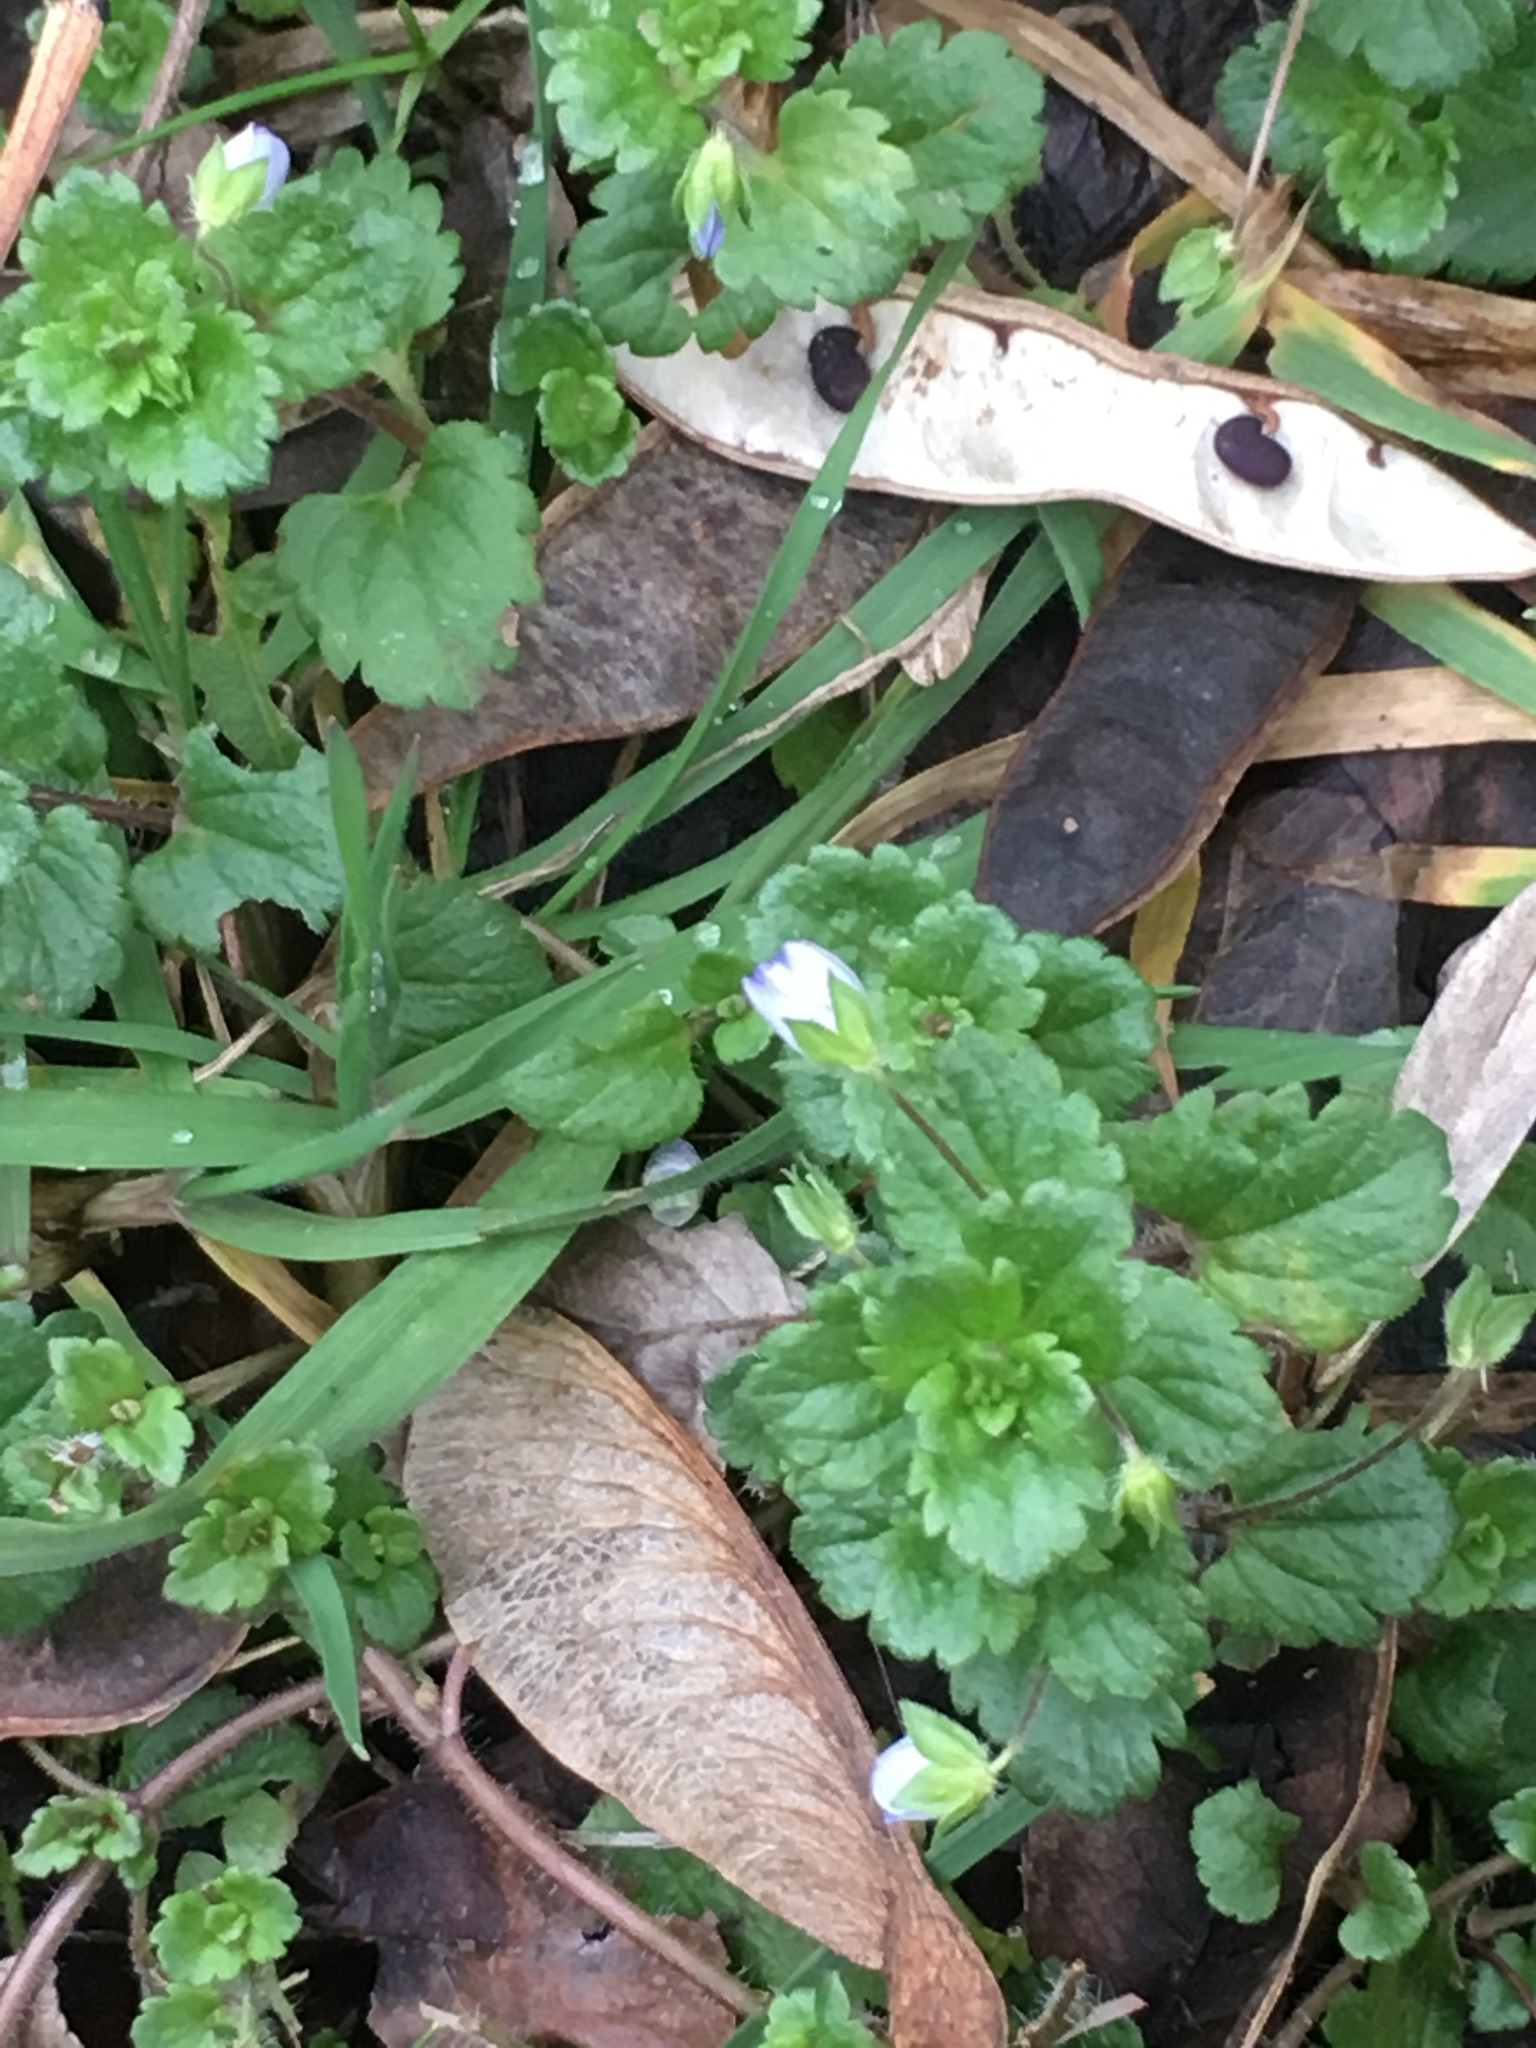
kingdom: Plantae
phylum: Tracheophyta
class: Magnoliopsida
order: Lamiales
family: Plantaginaceae
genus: Veronica
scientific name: Veronica persica
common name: Common field-speedwell
